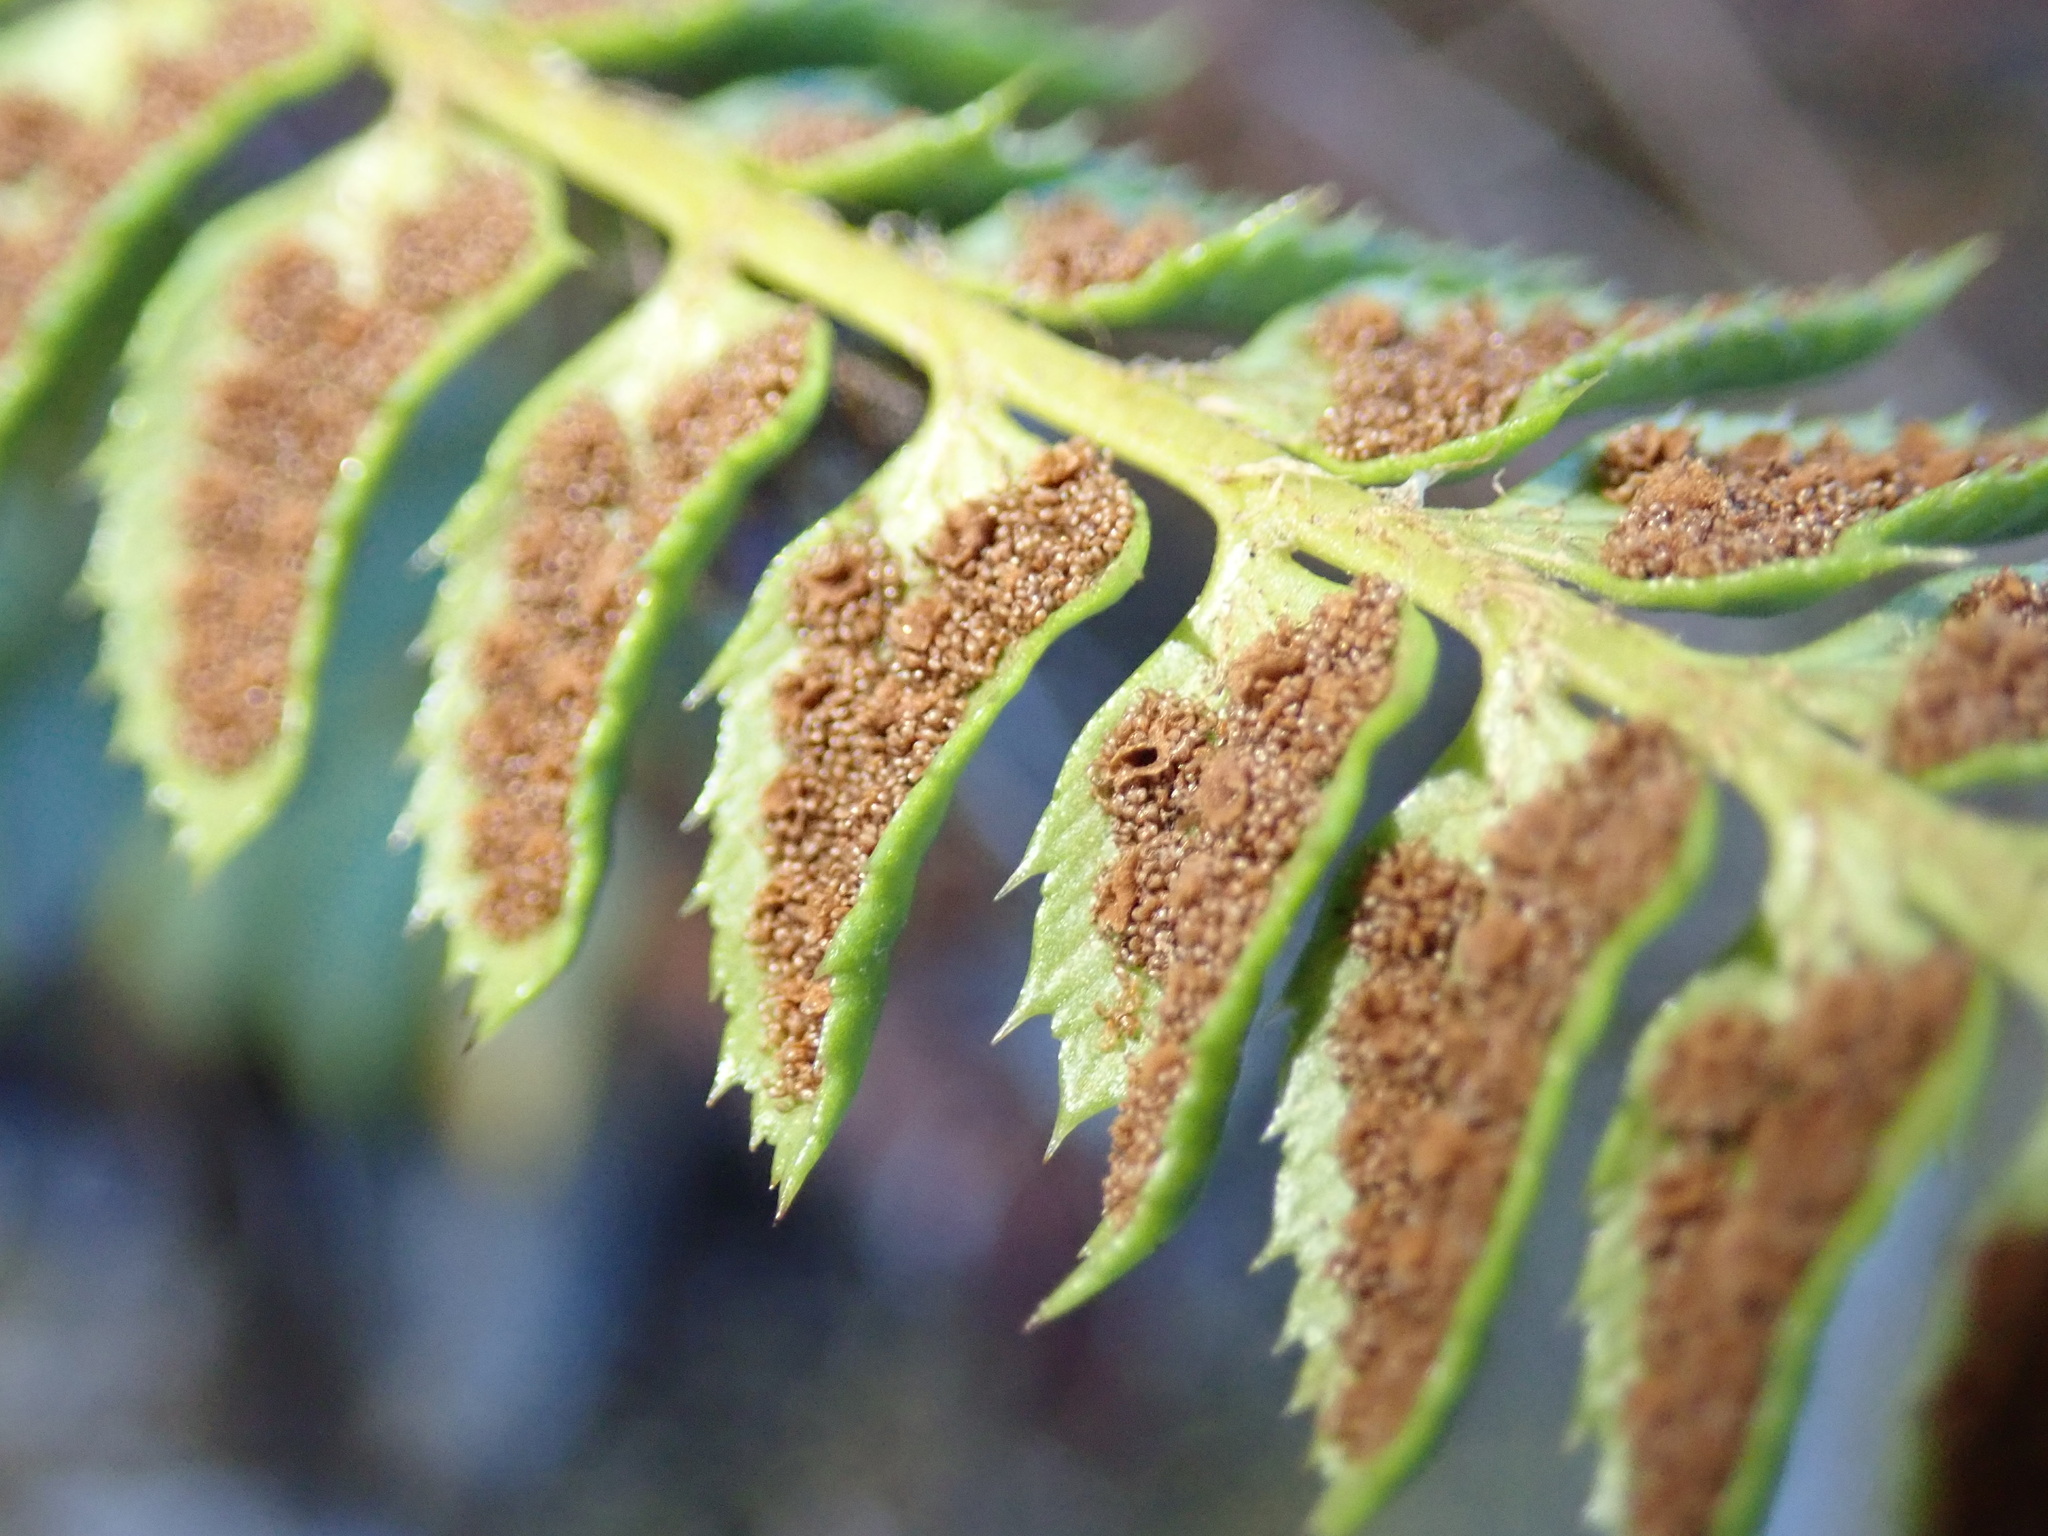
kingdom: Plantae
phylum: Tracheophyta
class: Polypodiopsida
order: Polypodiales
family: Dryopteridaceae
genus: Polystichum
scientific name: Polystichum lonchitis
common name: Holly fern
